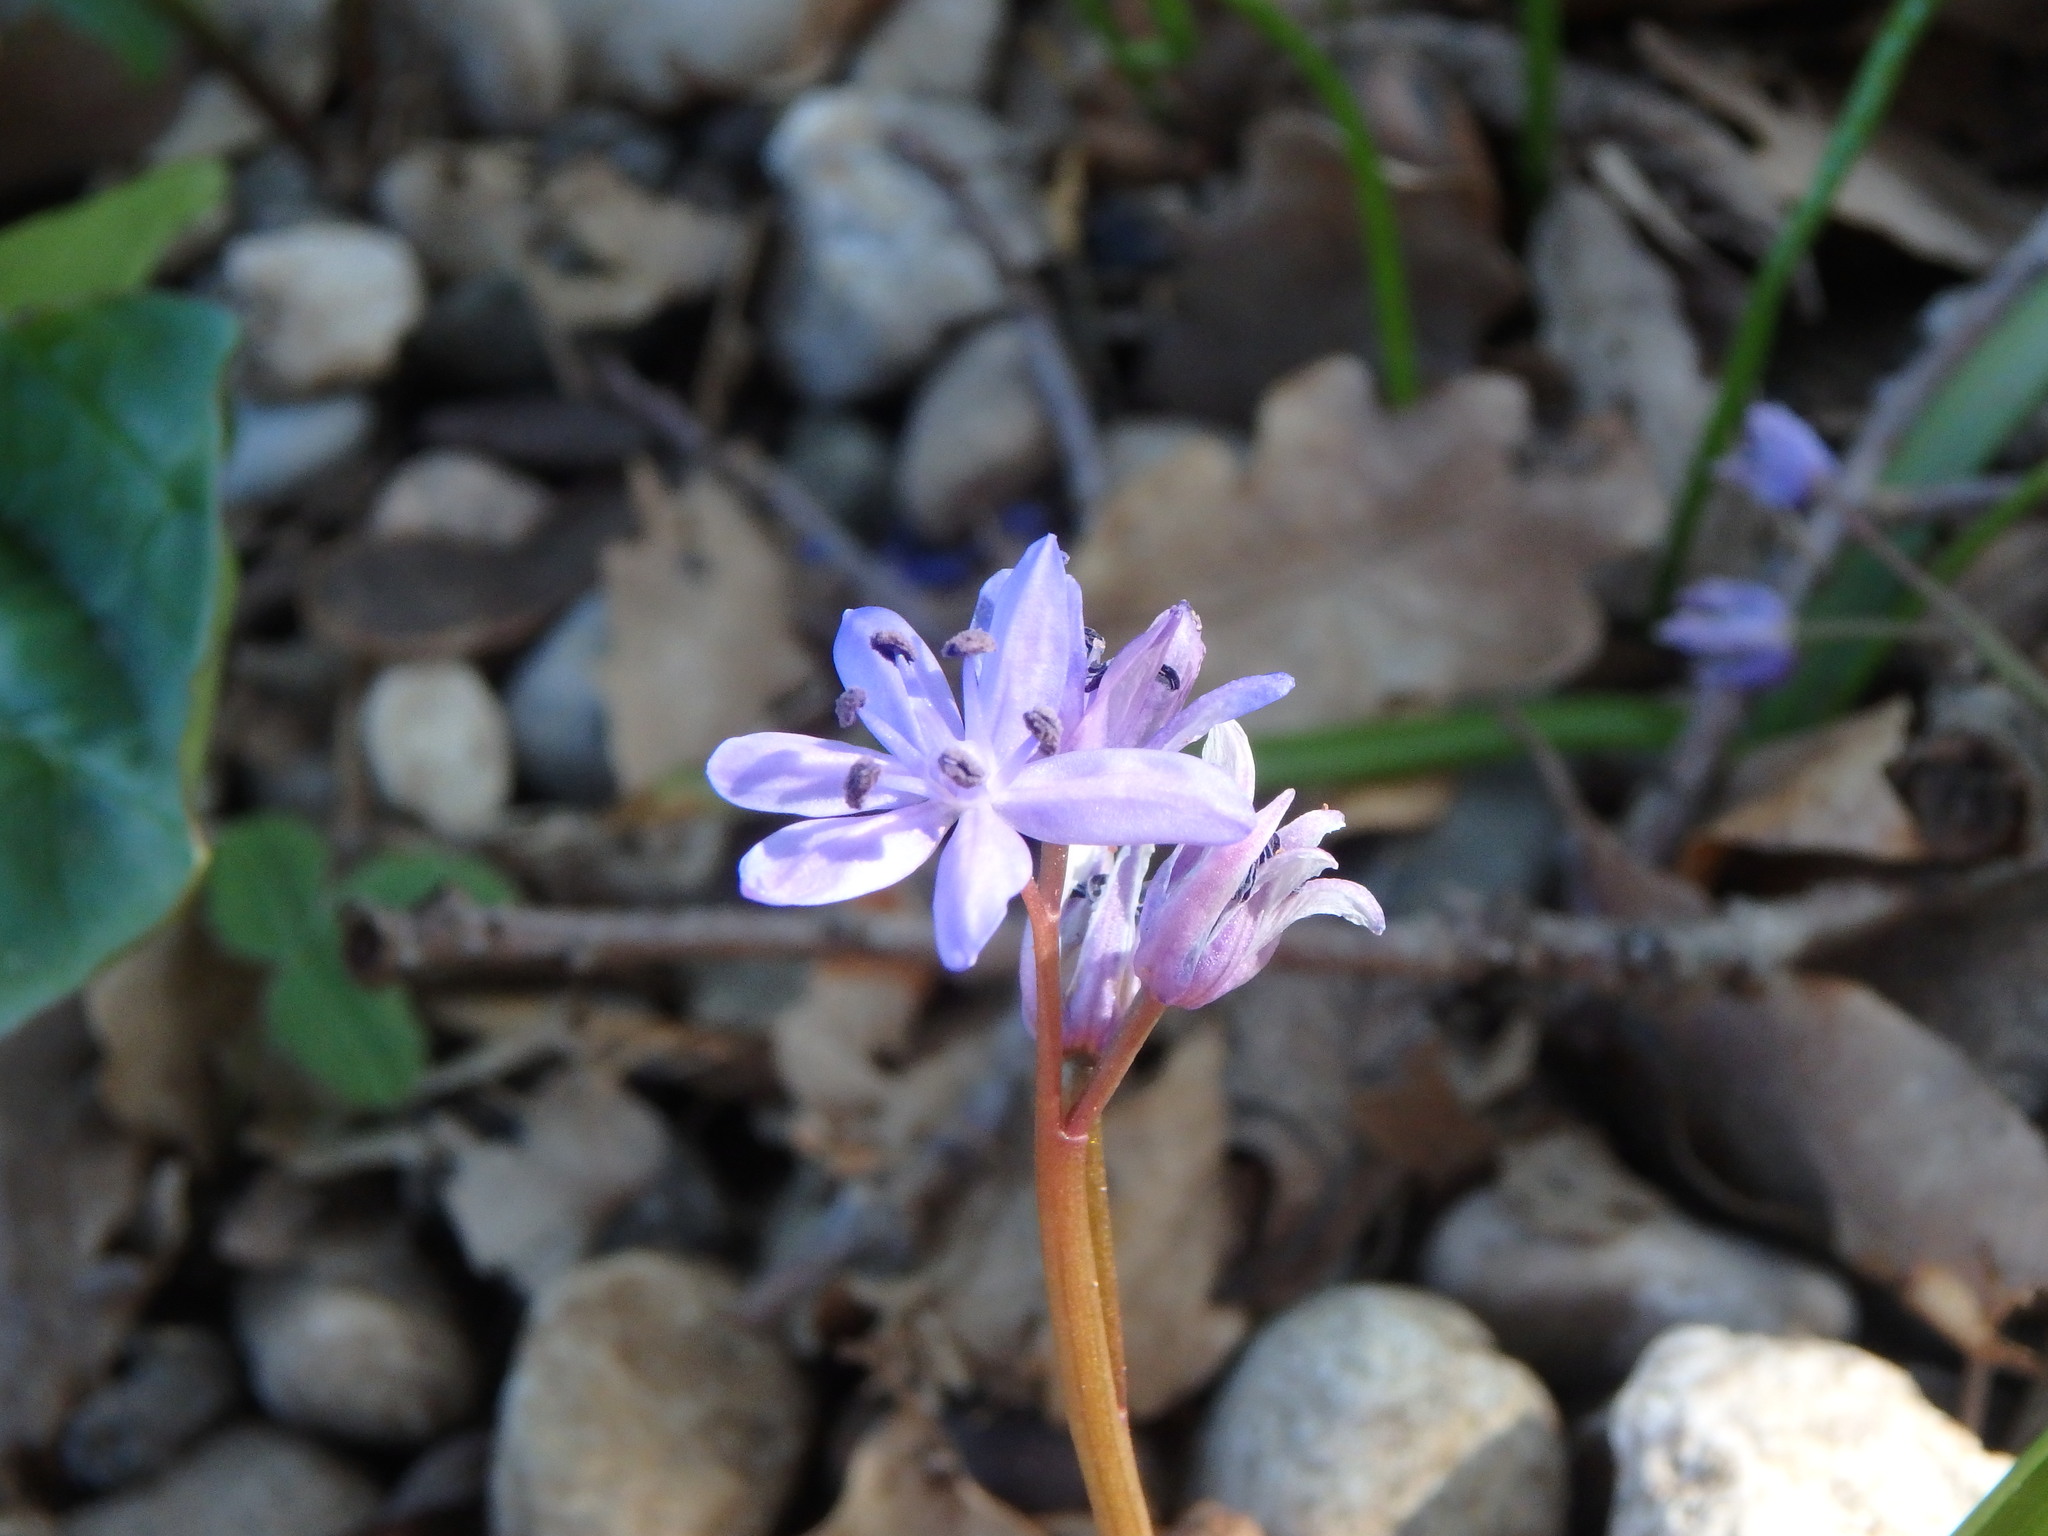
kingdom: Plantae
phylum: Tracheophyta
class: Liliopsida
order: Asparagales
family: Asparagaceae
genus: Scilla
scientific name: Scilla bifolia
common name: Alpine squill
